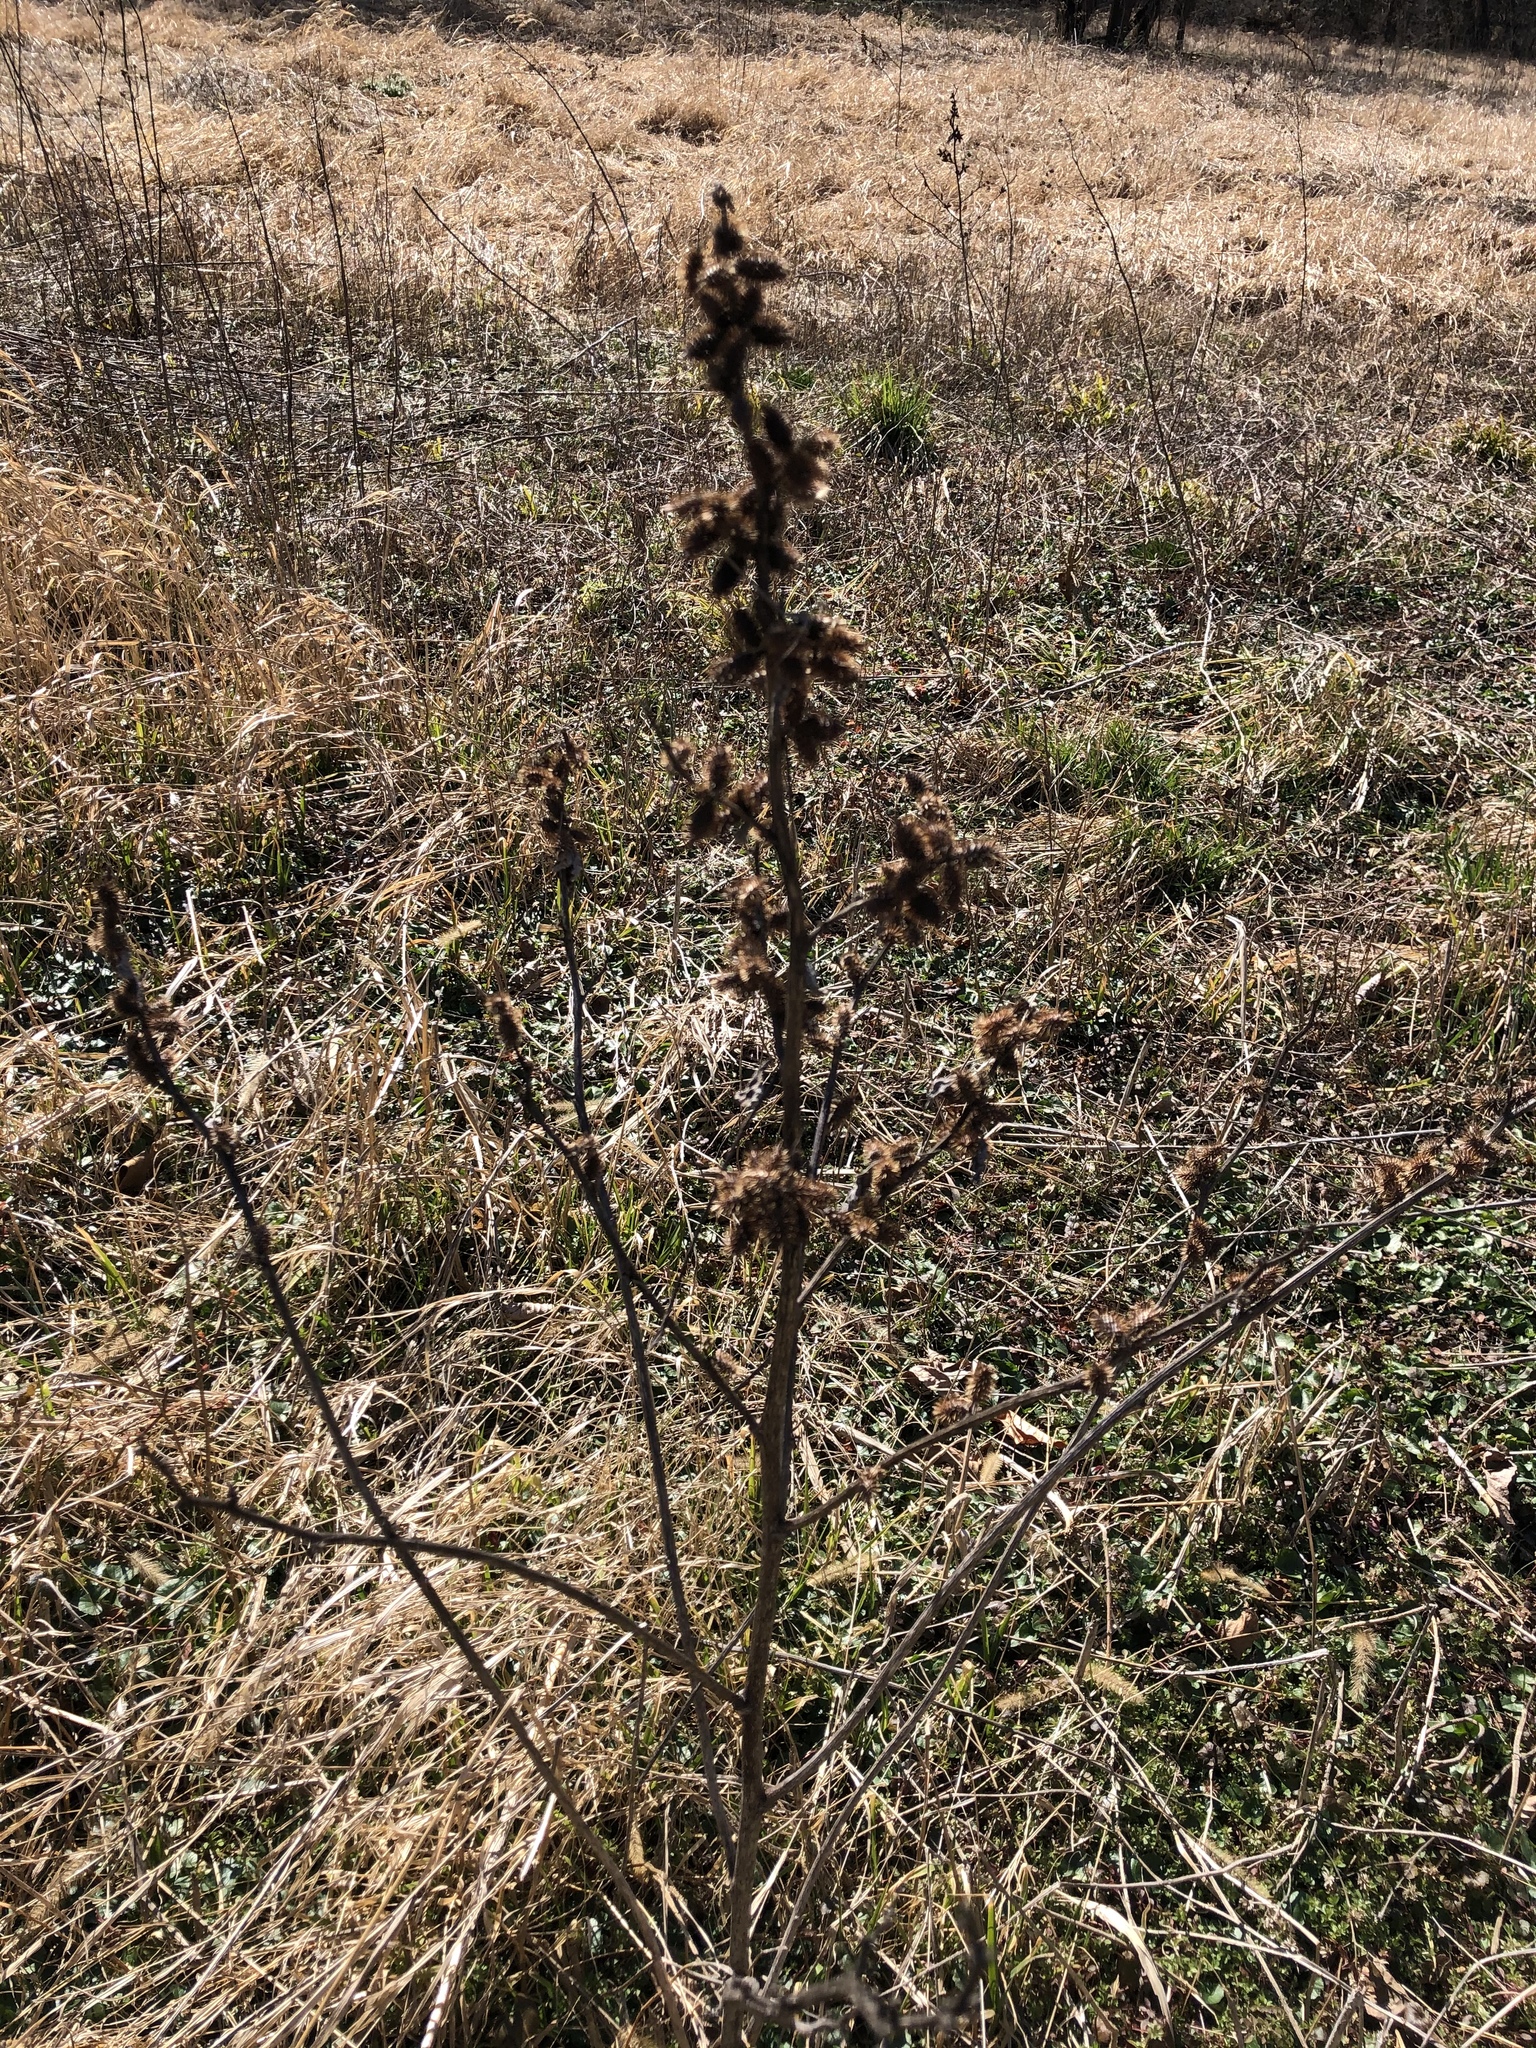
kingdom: Plantae
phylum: Tracheophyta
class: Magnoliopsida
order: Asterales
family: Asteraceae
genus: Xanthium
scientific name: Xanthium strumarium
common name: Rough cocklebur
